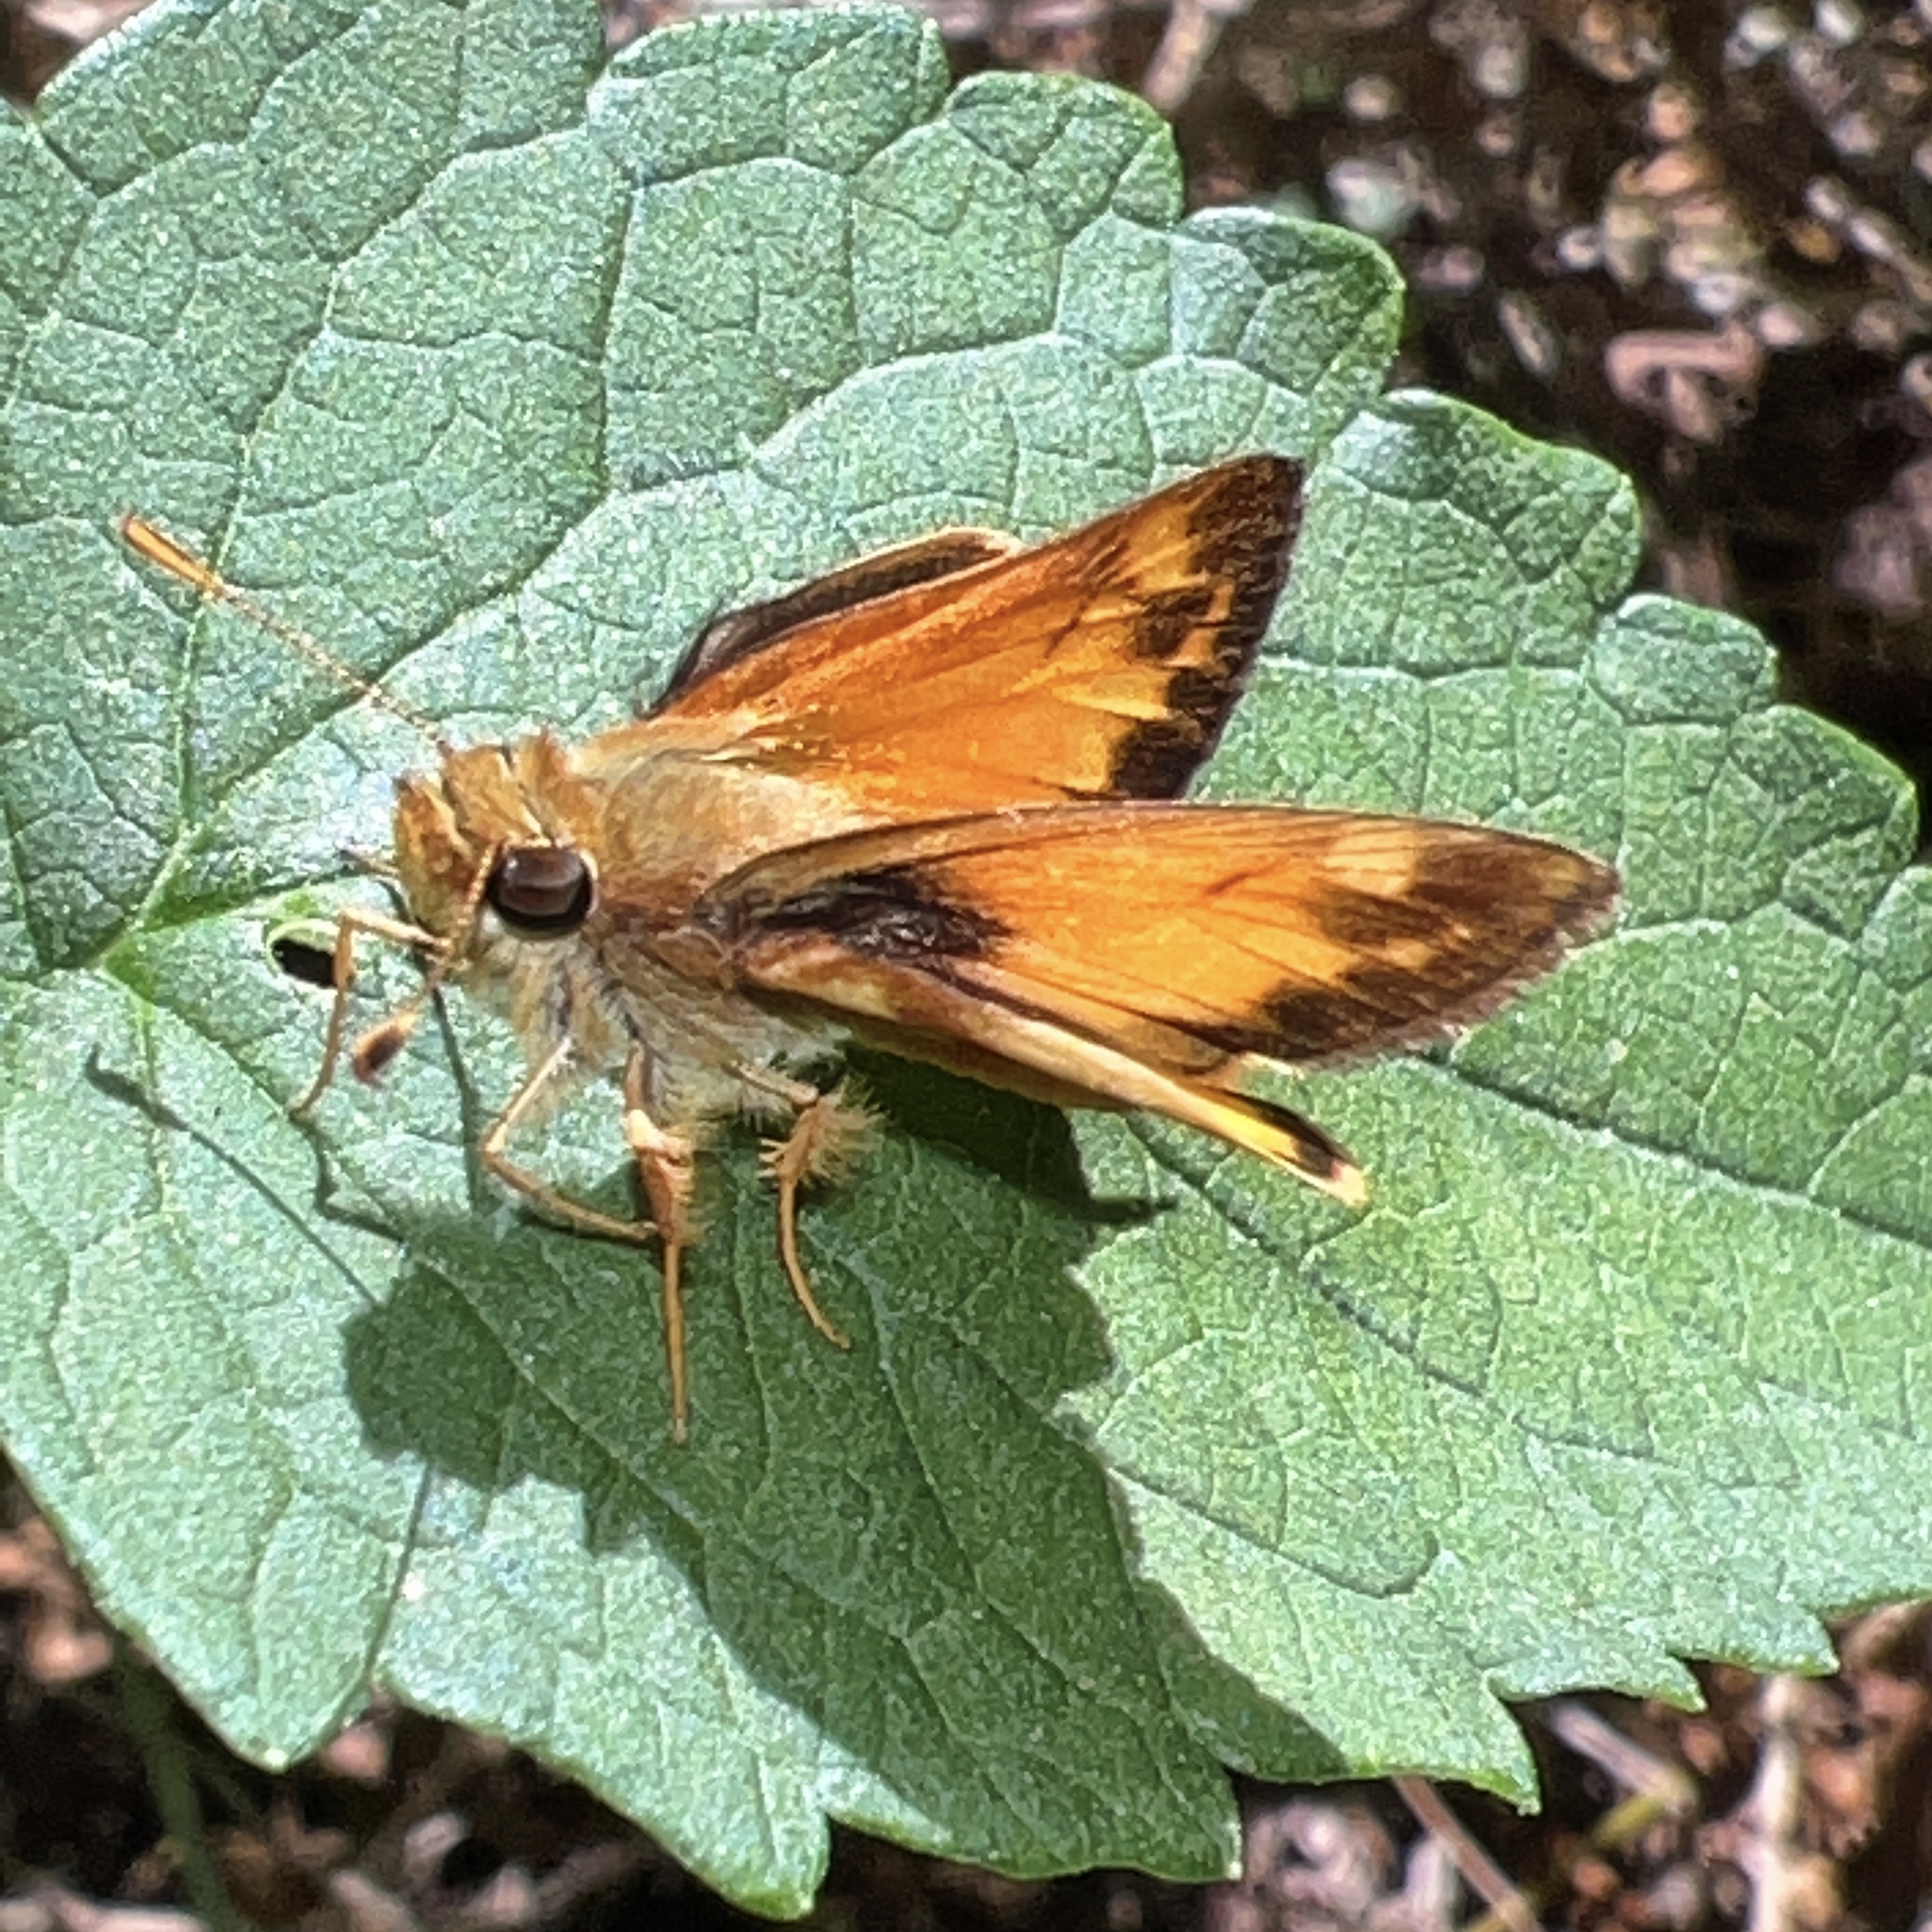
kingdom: Animalia
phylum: Arthropoda
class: Insecta
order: Lepidoptera
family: Hesperiidae
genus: Lon
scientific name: Lon zabulon
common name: Zabulon skipper
